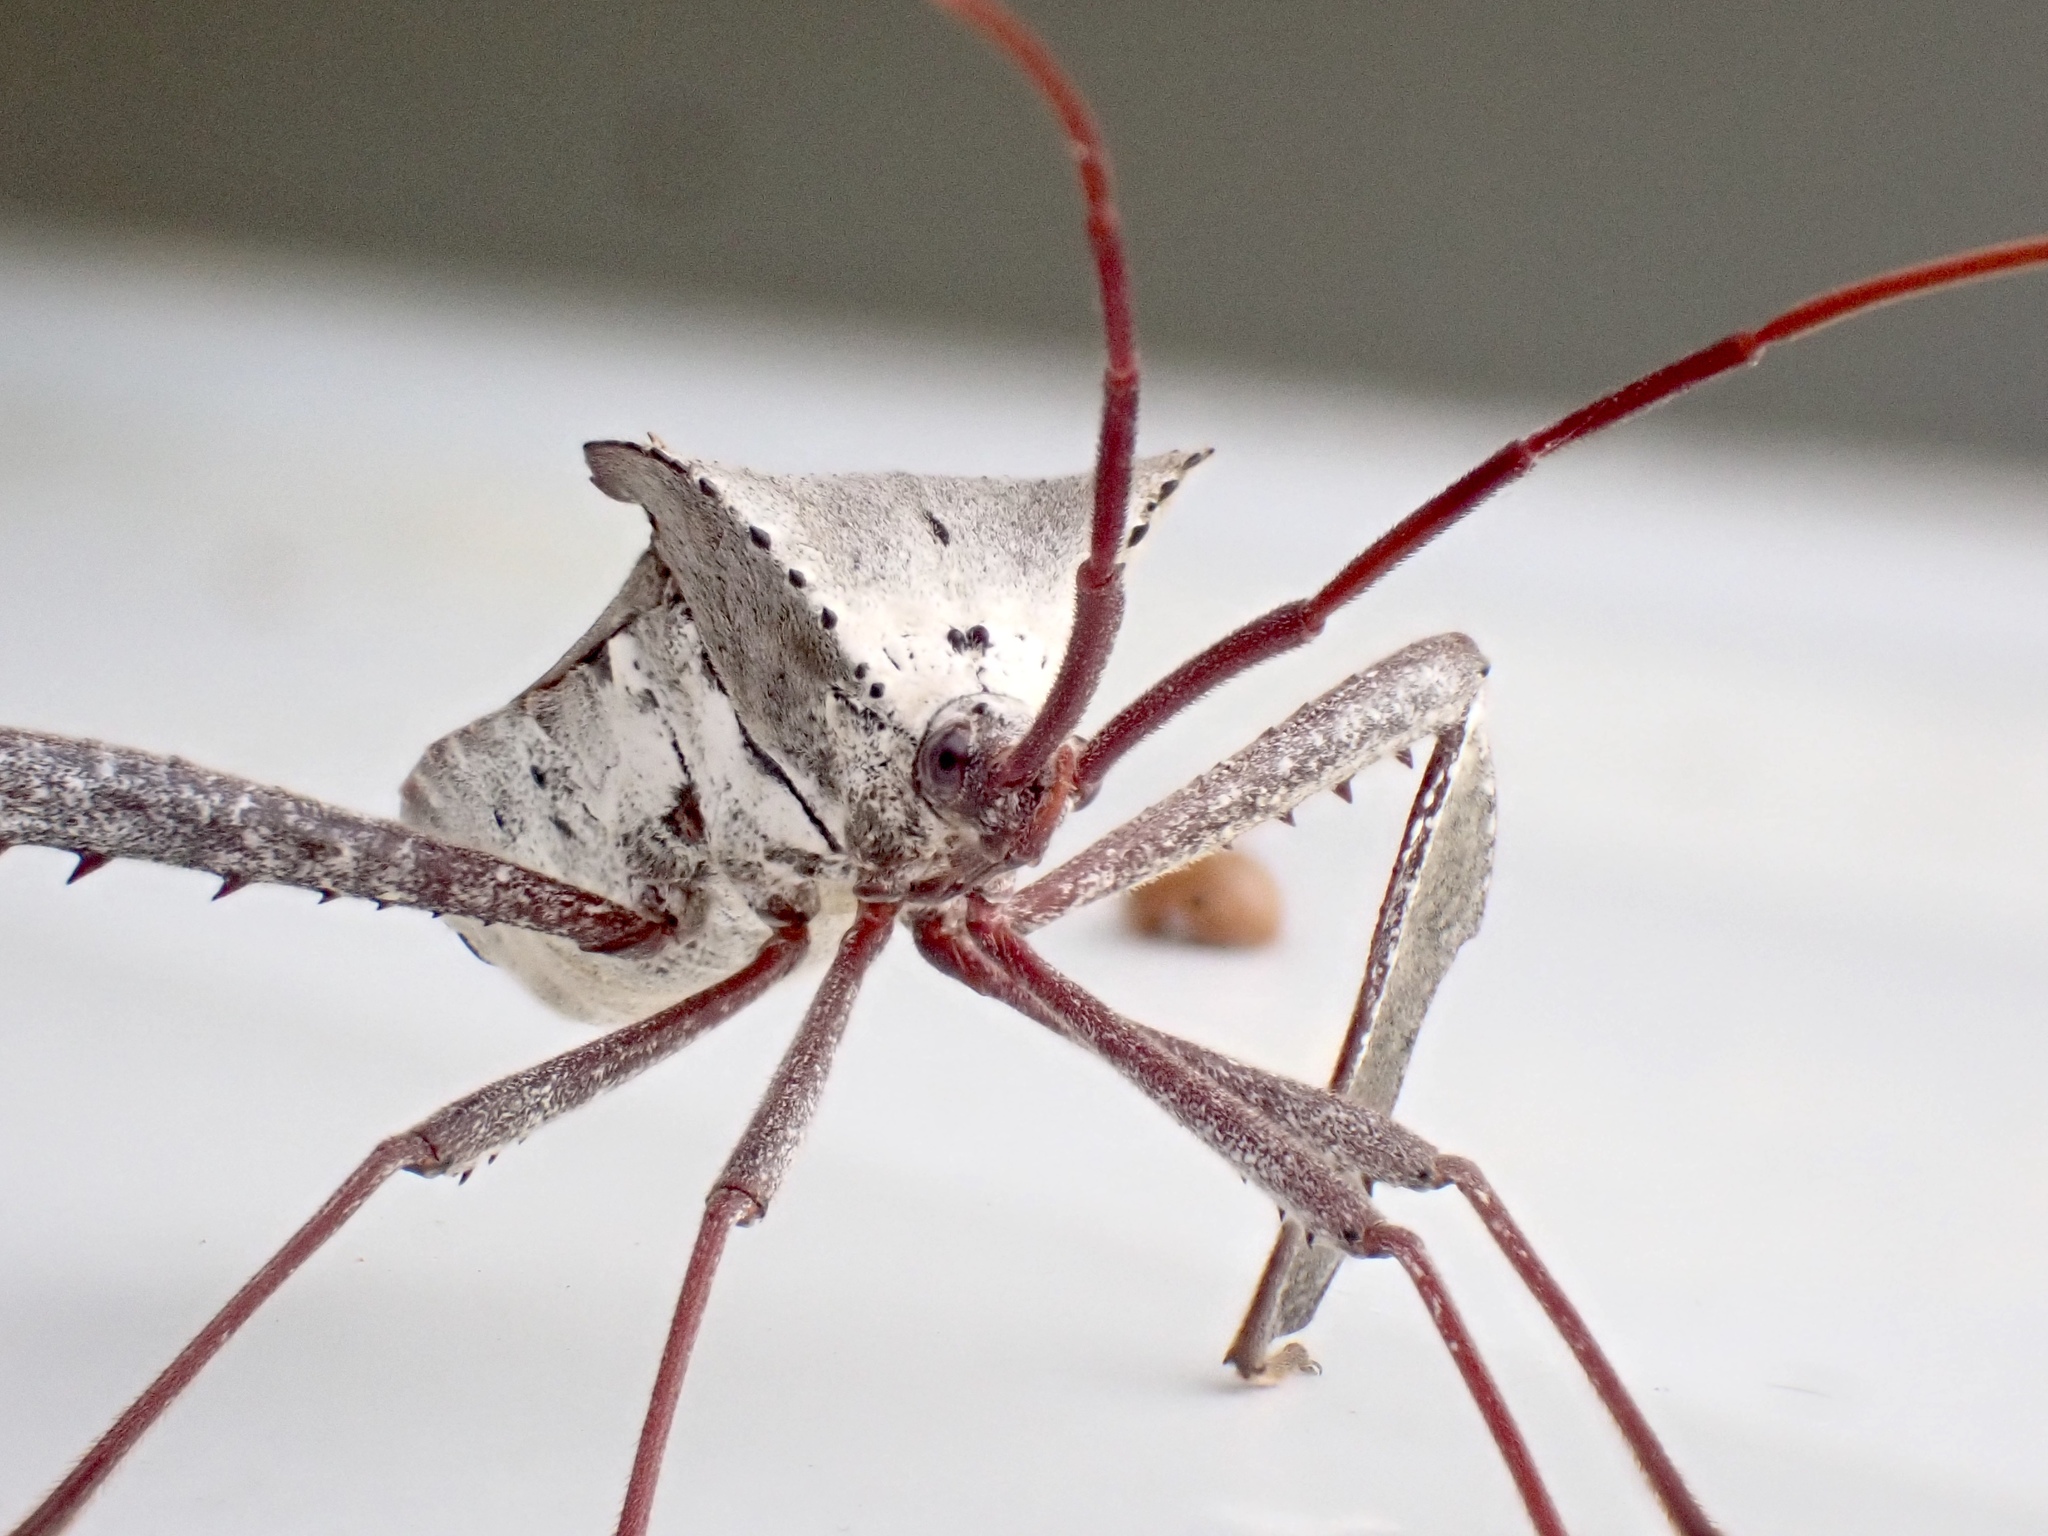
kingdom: Animalia
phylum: Arthropoda
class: Insecta
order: Hemiptera
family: Coreidae
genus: Acanthocephala
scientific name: Acanthocephala declivis
